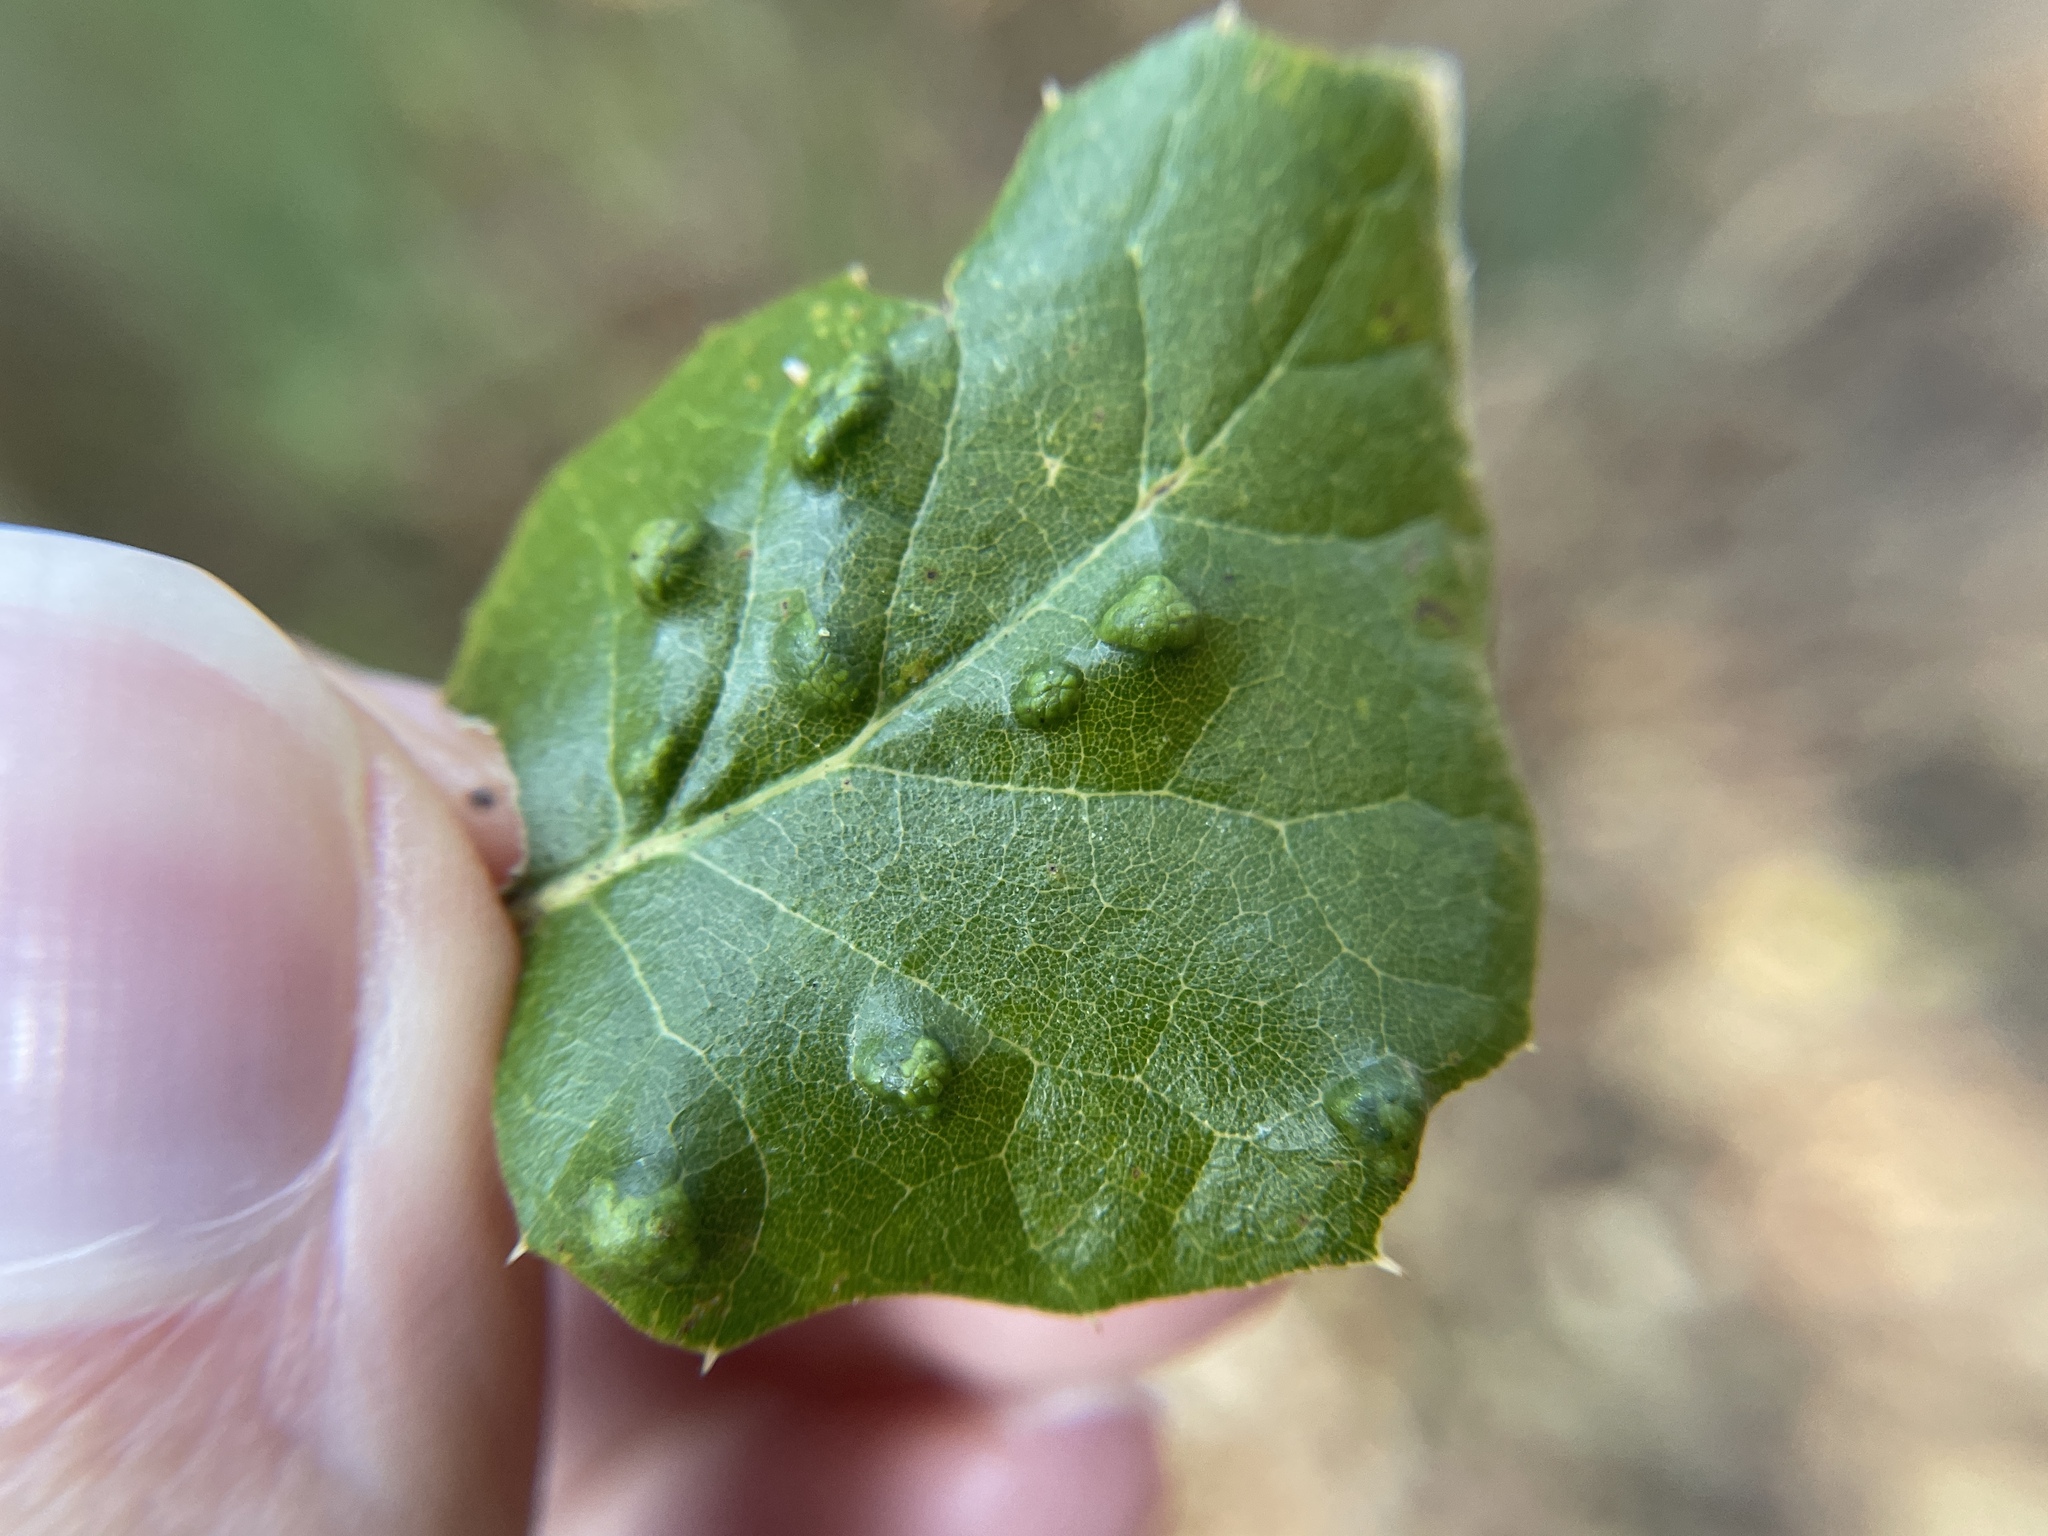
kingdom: Animalia
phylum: Arthropoda
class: Arachnida
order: Trombidiformes
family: Eriophyidae
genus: Aceria
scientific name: Aceria
